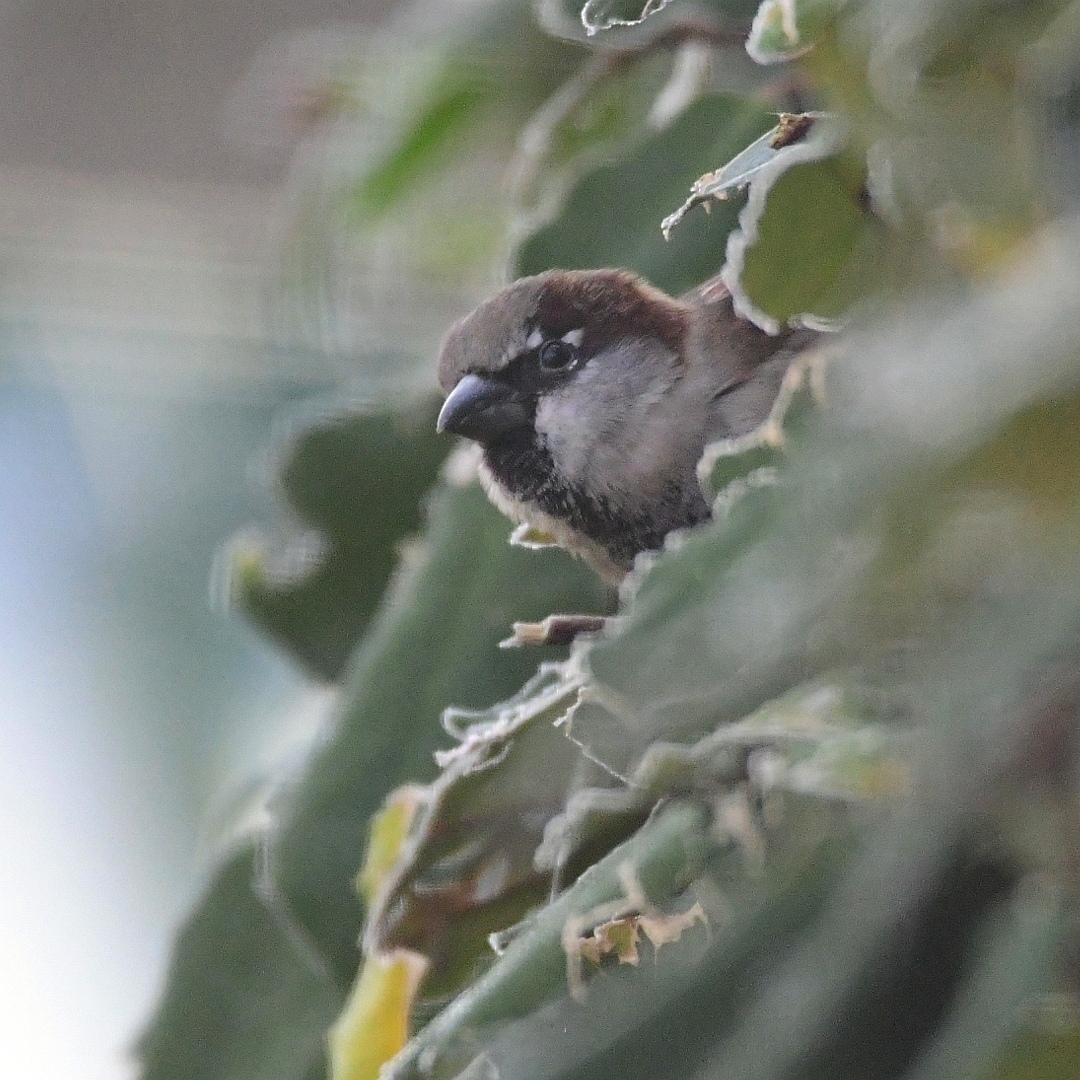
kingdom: Animalia
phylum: Chordata
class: Aves
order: Passeriformes
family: Passeridae
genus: Passer
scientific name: Passer domesticus
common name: House sparrow
